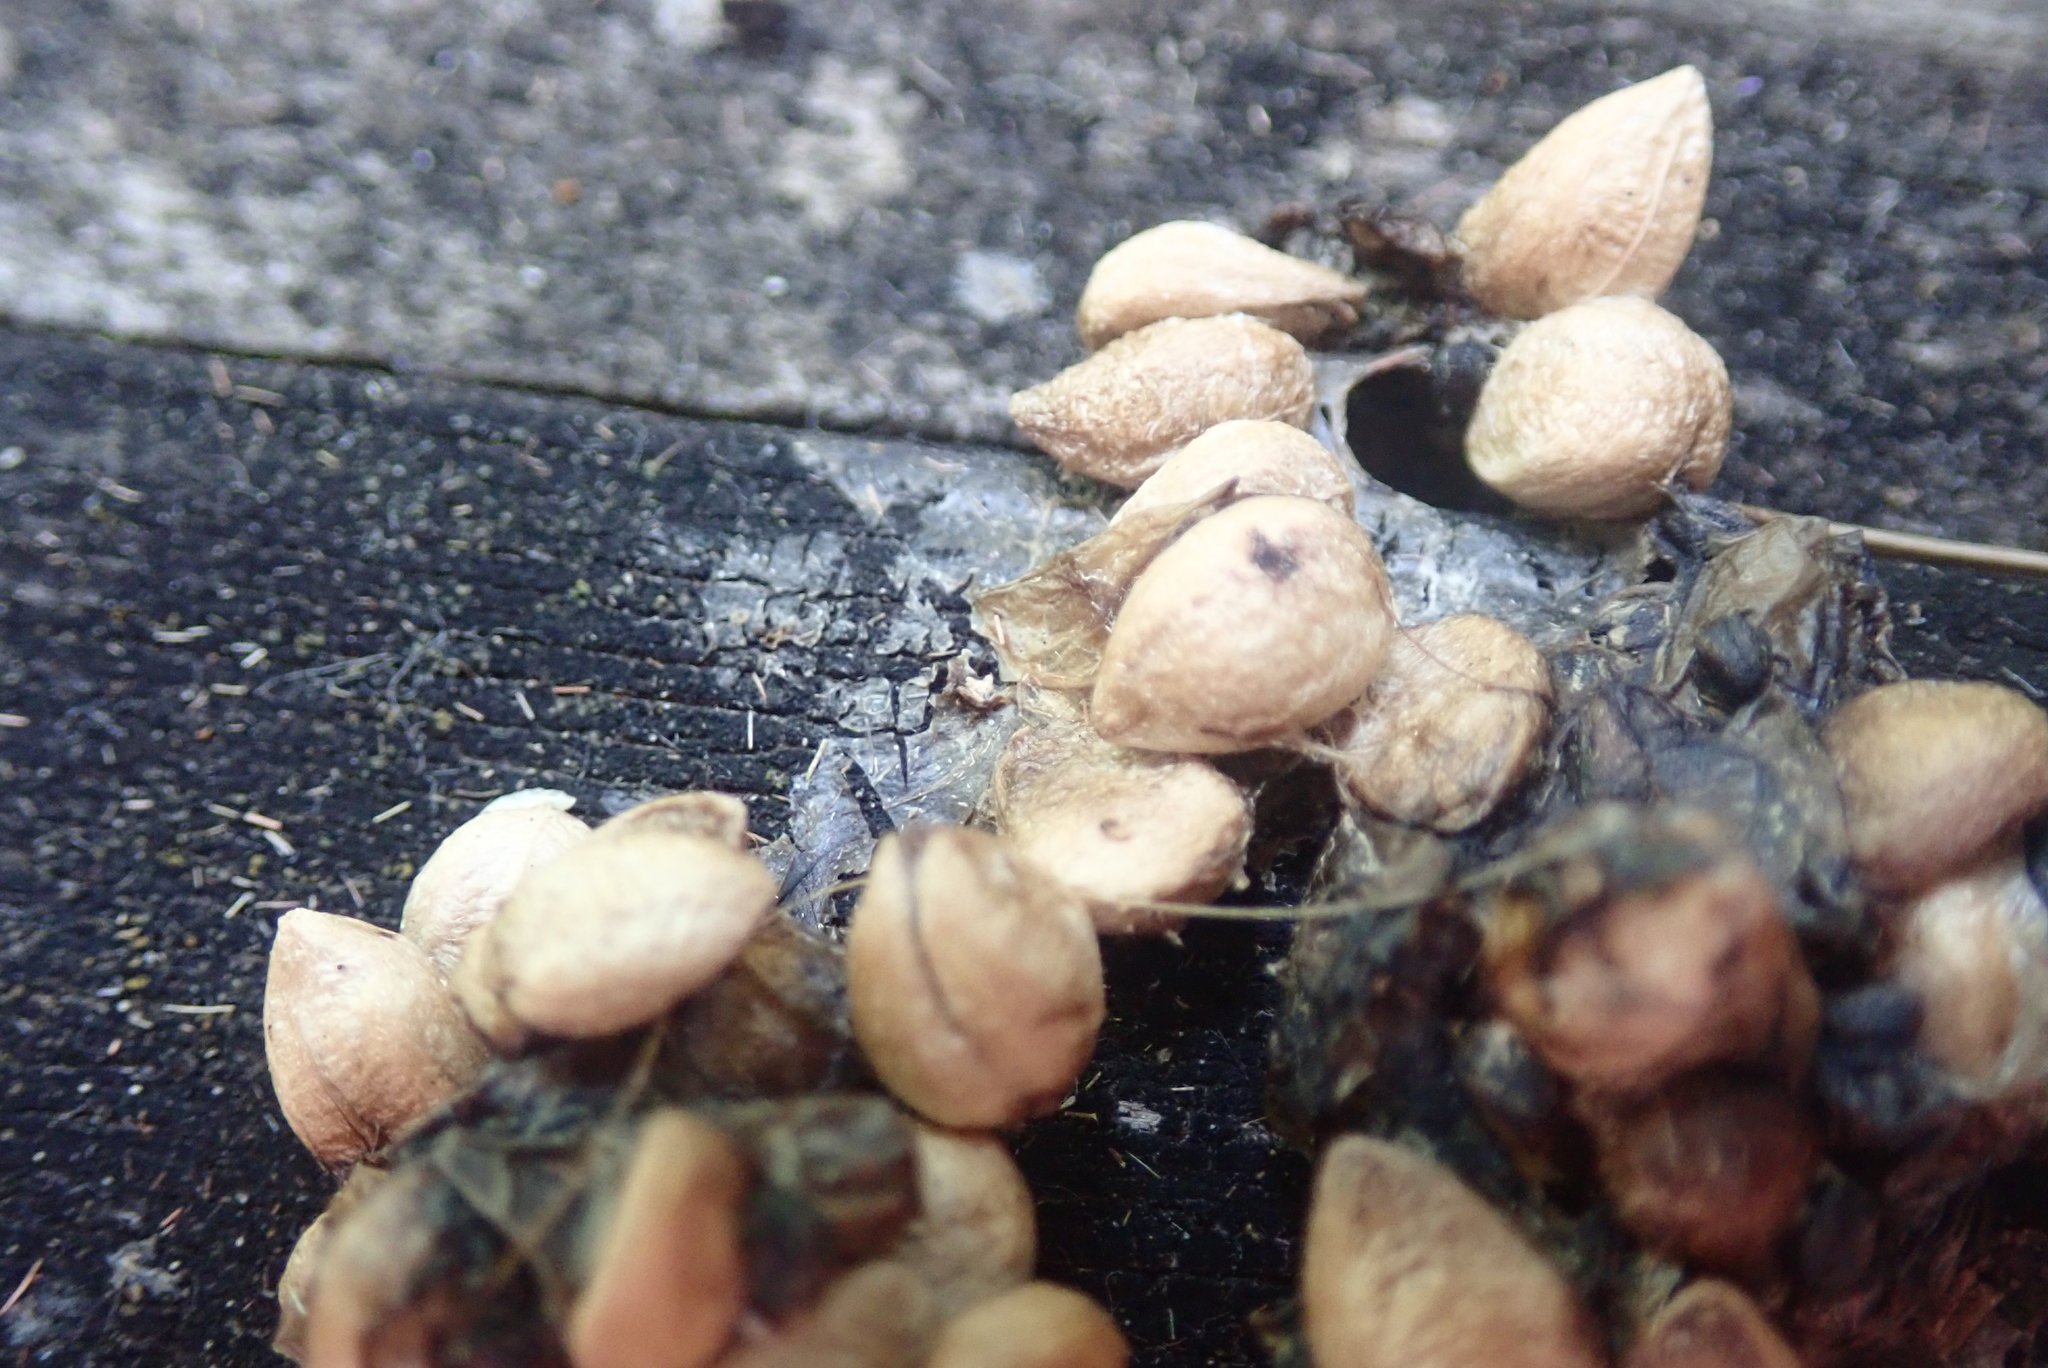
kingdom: Animalia
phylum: Chordata
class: Aves
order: Columbiformes
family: Columbidae
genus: Hemiphaga
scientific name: Hemiphaga novaeseelandiae
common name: New zealand pigeon
